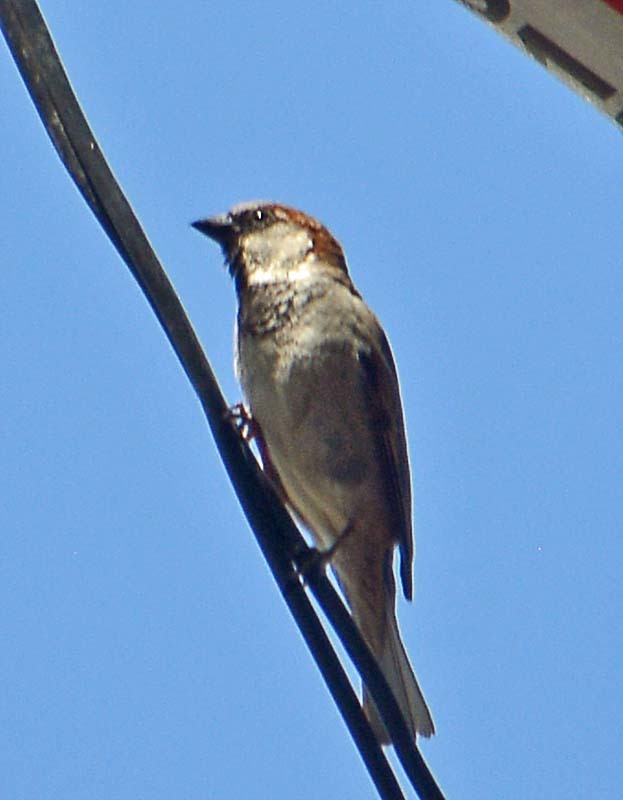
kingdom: Animalia
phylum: Chordata
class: Aves
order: Passeriformes
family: Passeridae
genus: Passer
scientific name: Passer domesticus
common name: House sparrow
